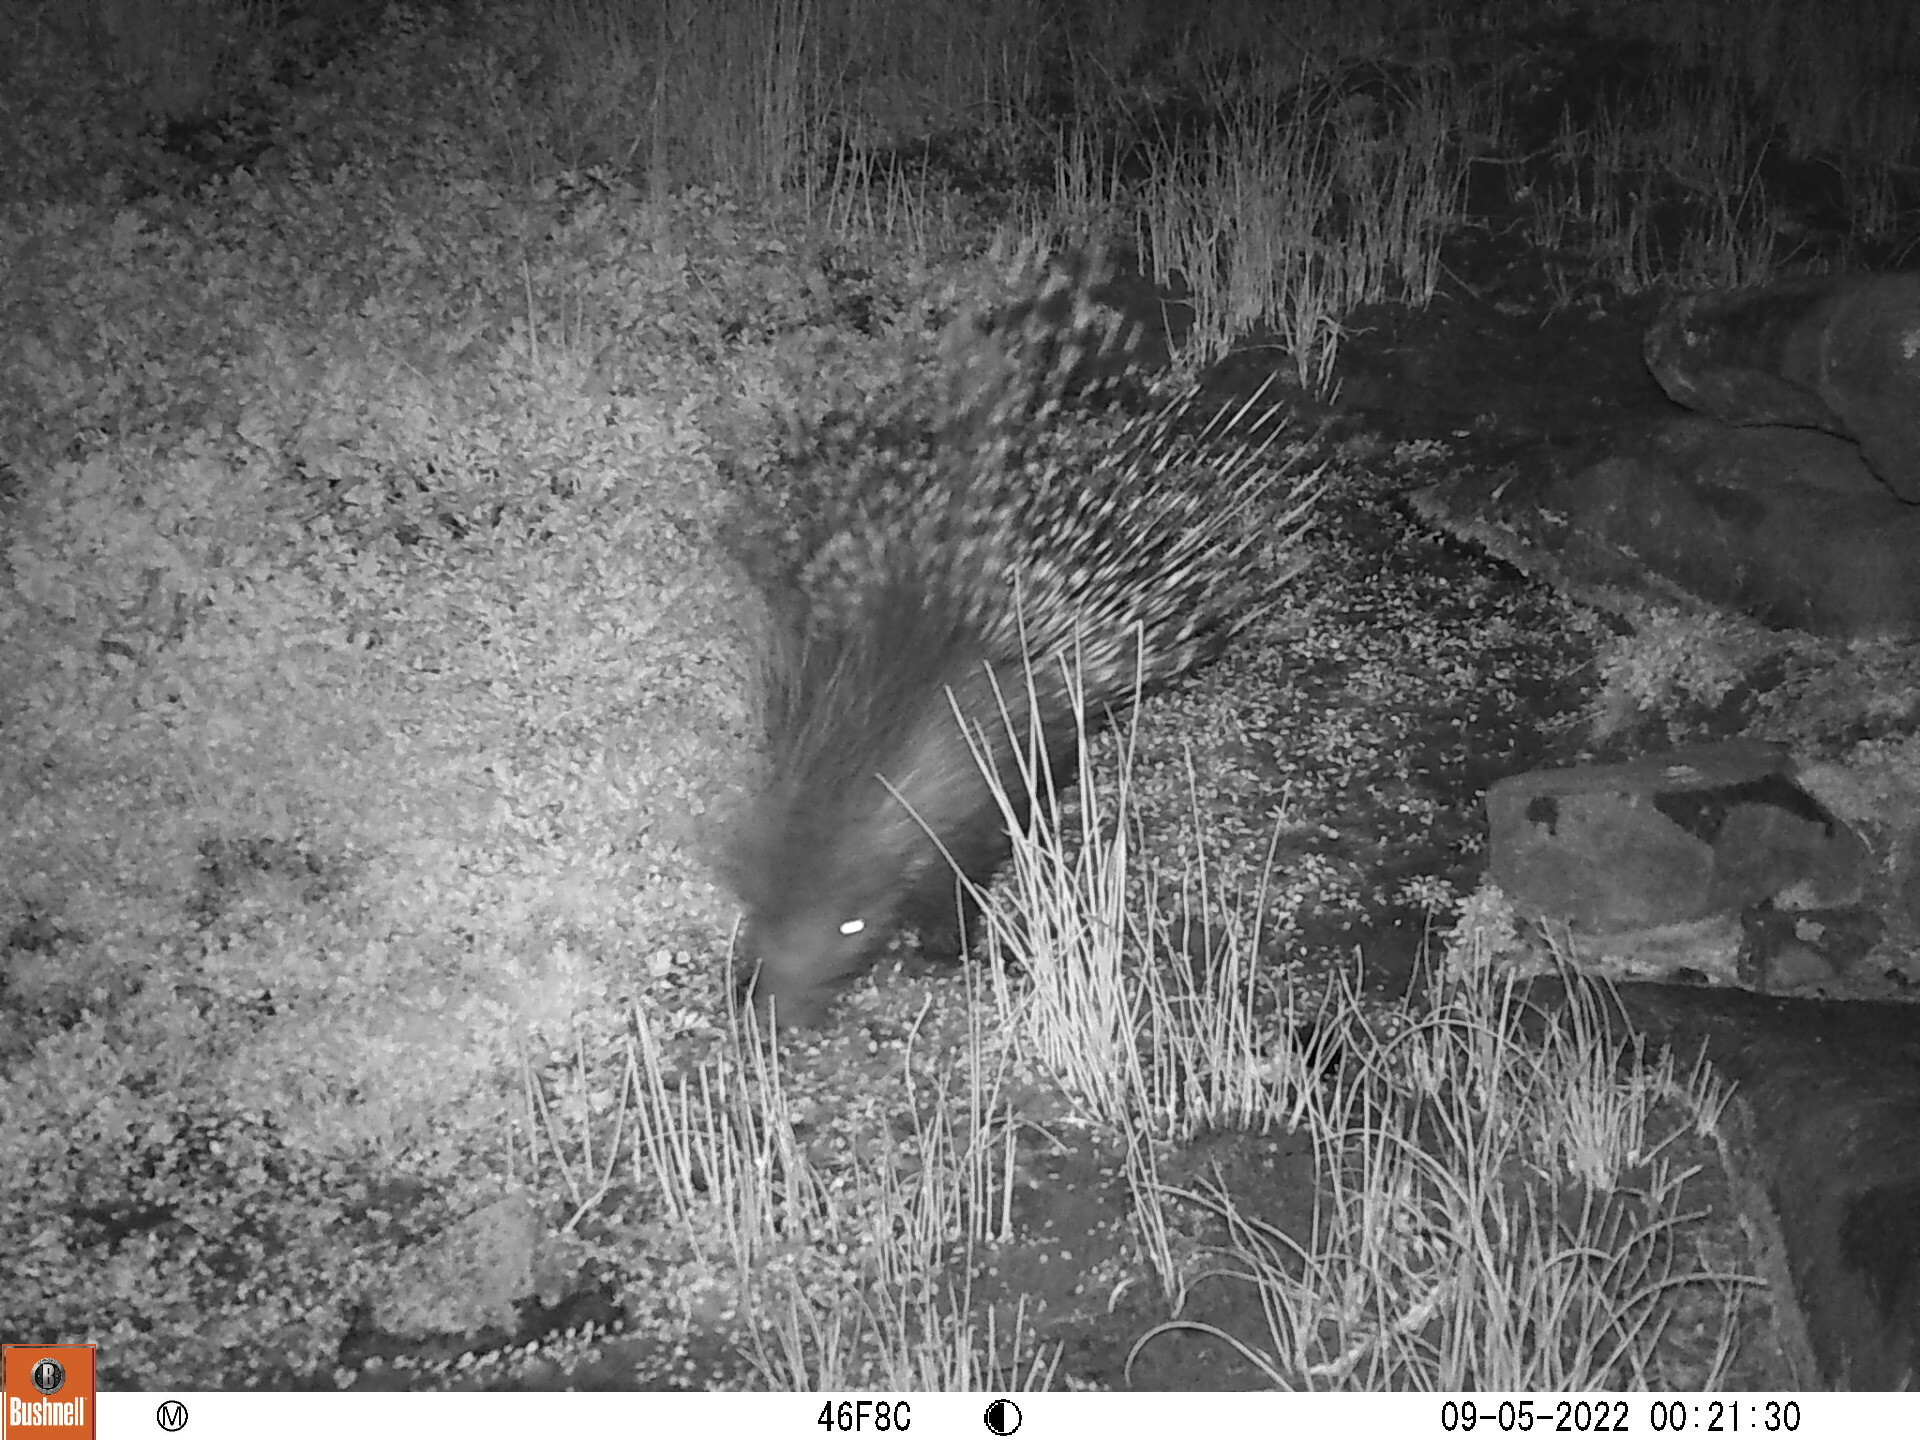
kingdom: Animalia
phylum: Chordata
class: Mammalia
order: Rodentia
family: Hystricidae
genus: Hystrix
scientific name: Hystrix africaeaustralis
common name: Cape porcupine
